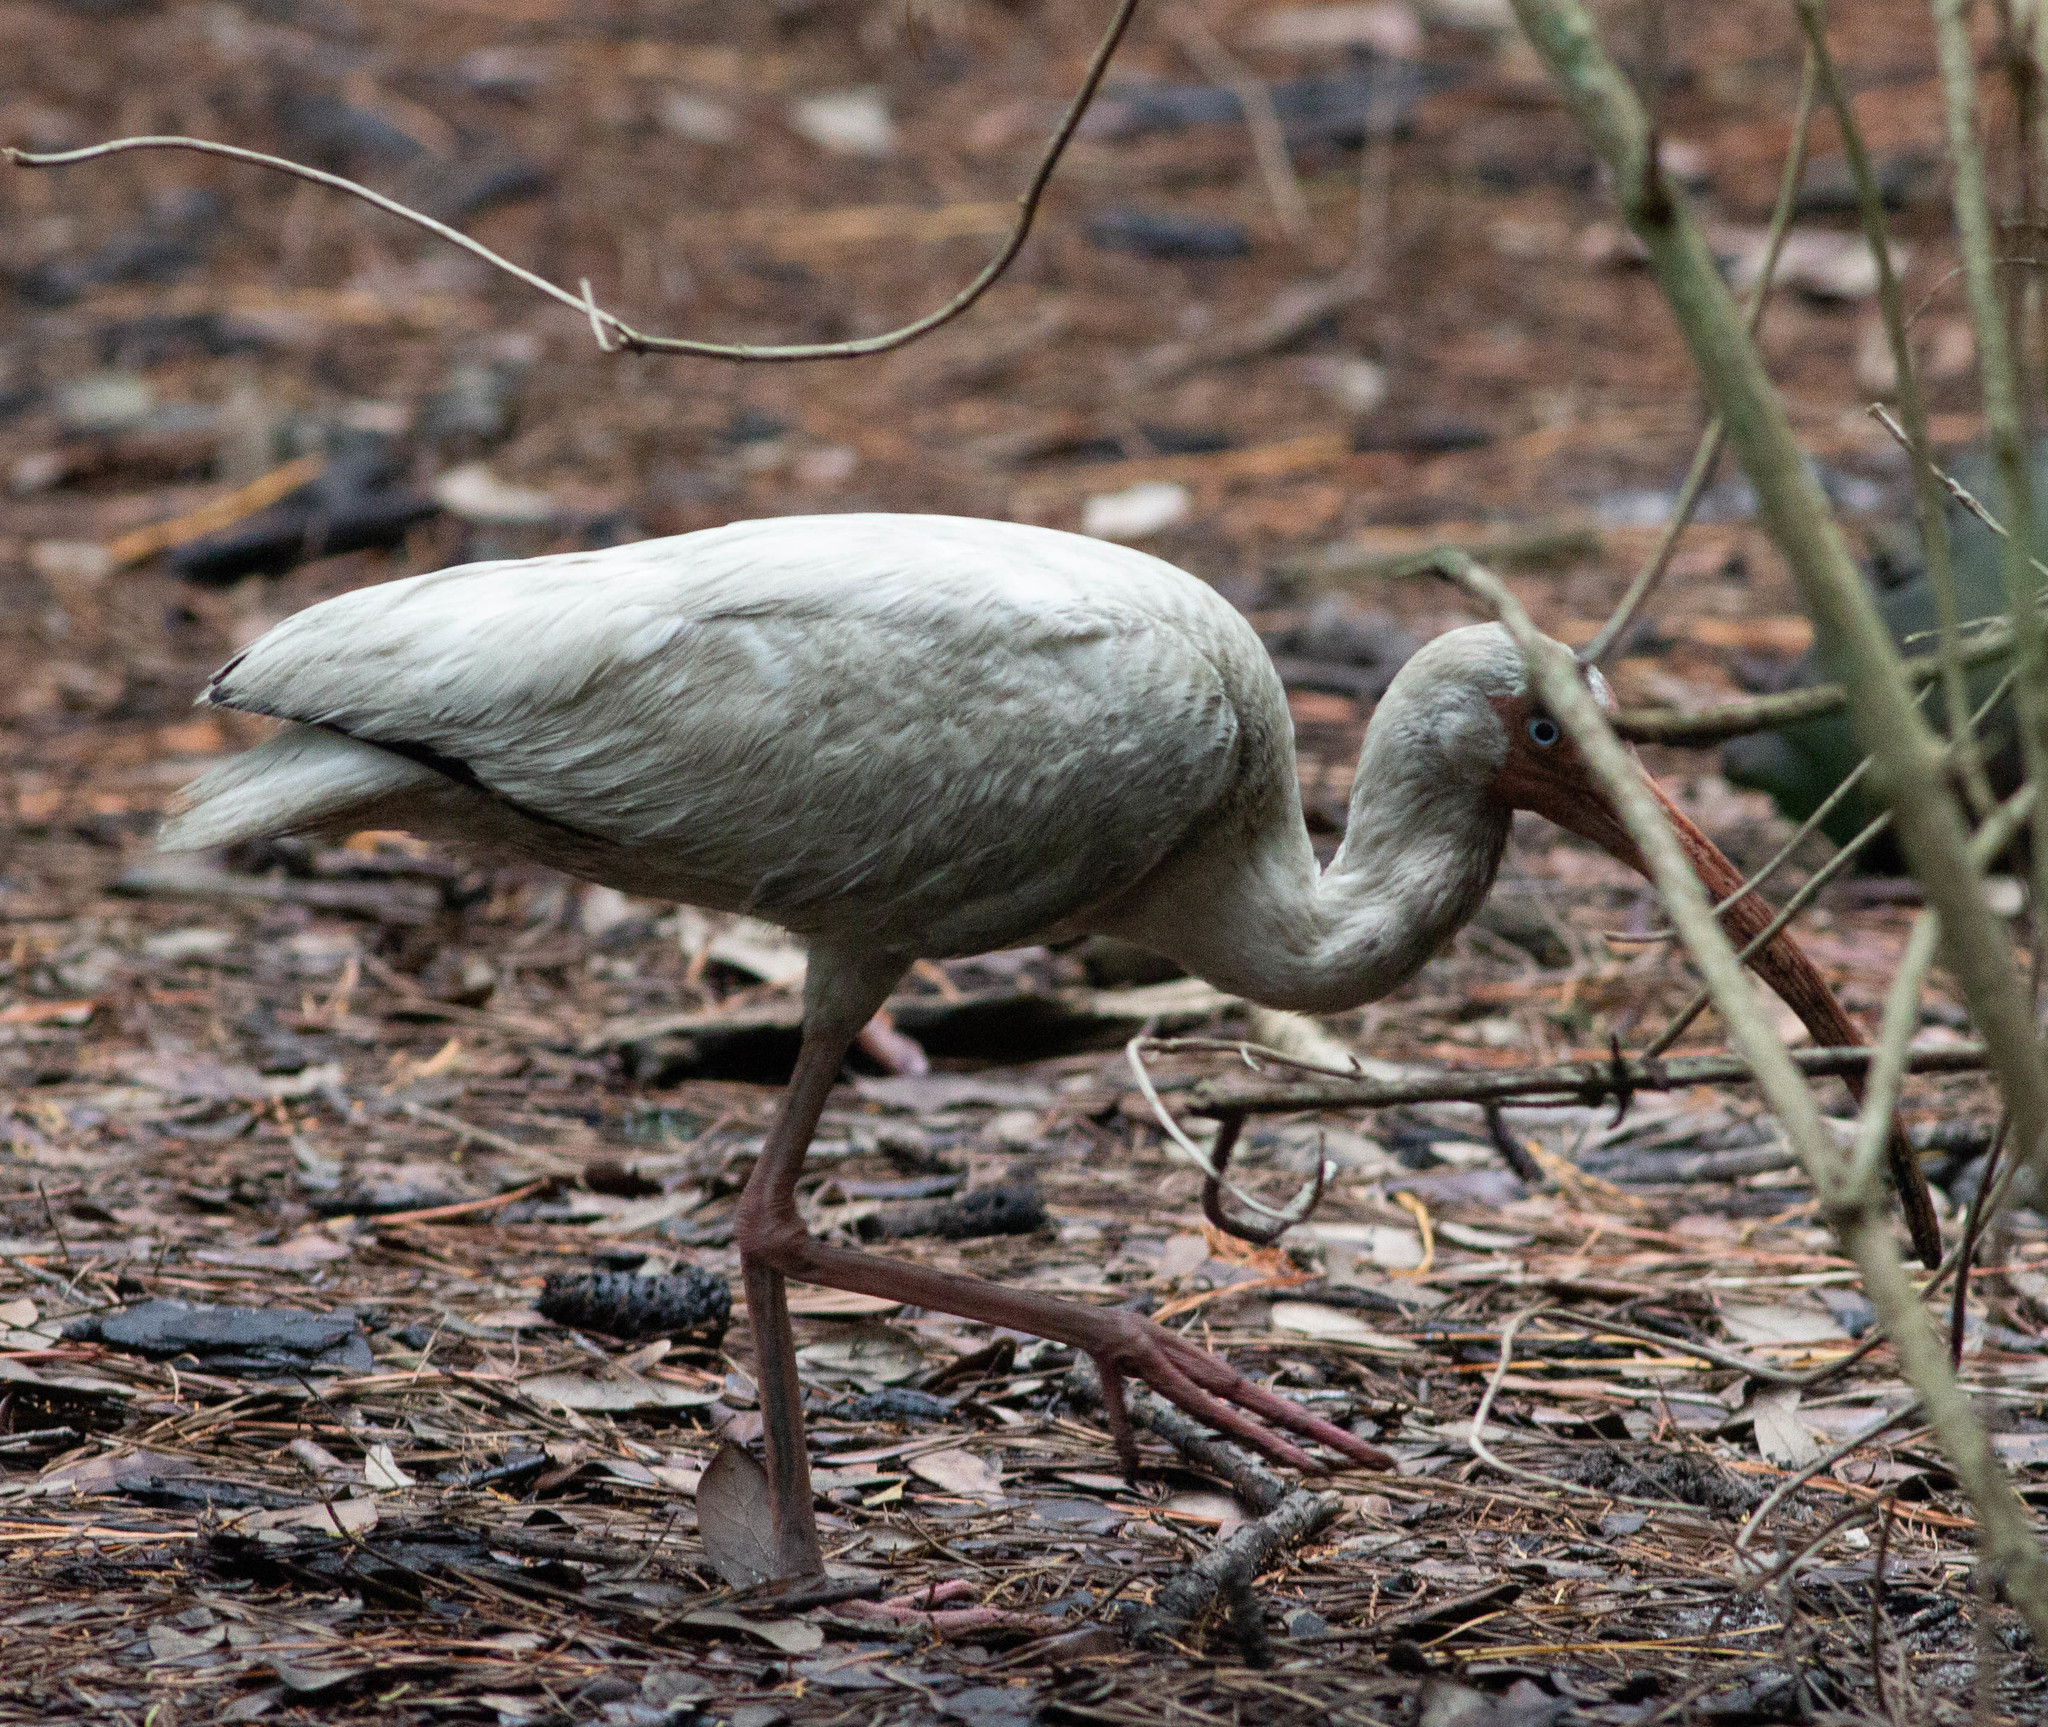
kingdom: Animalia
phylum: Chordata
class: Aves
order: Pelecaniformes
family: Threskiornithidae
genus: Eudocimus
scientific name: Eudocimus albus
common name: White ibis
